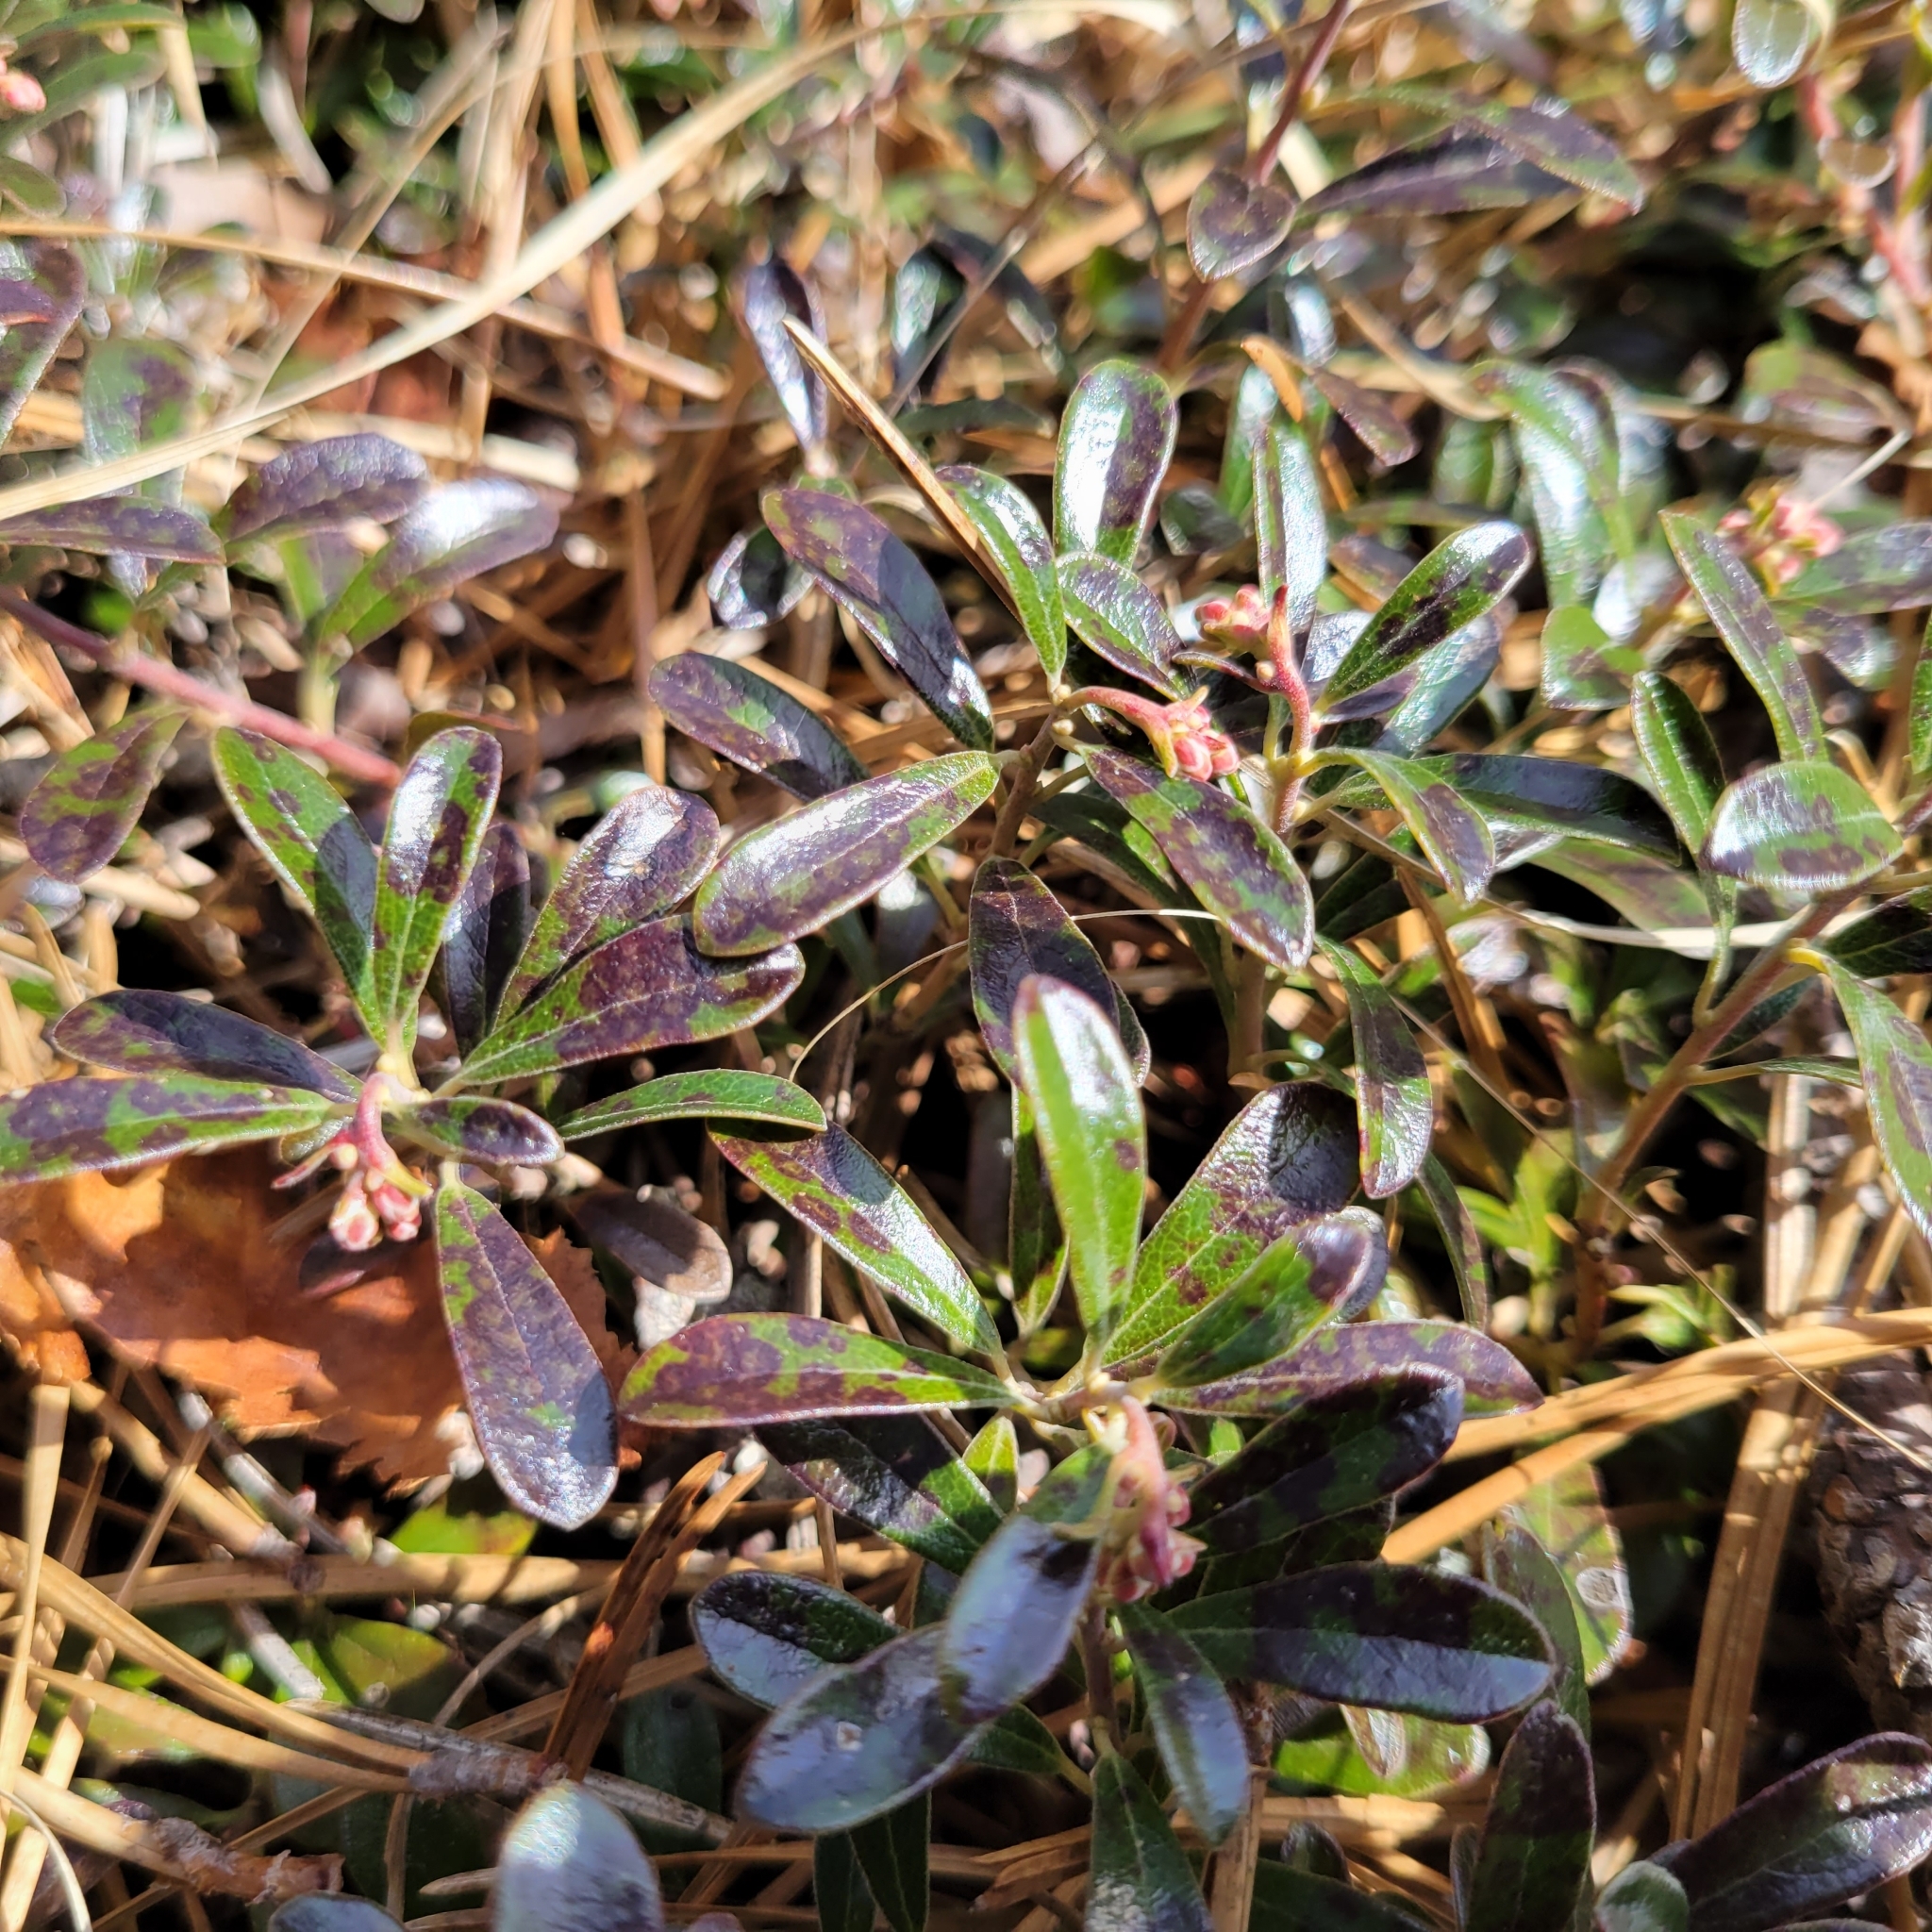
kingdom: Plantae
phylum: Tracheophyta
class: Magnoliopsida
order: Ericales
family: Ericaceae
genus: Arctostaphylos
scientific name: Arctostaphylos uva-ursi
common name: Bearberry
